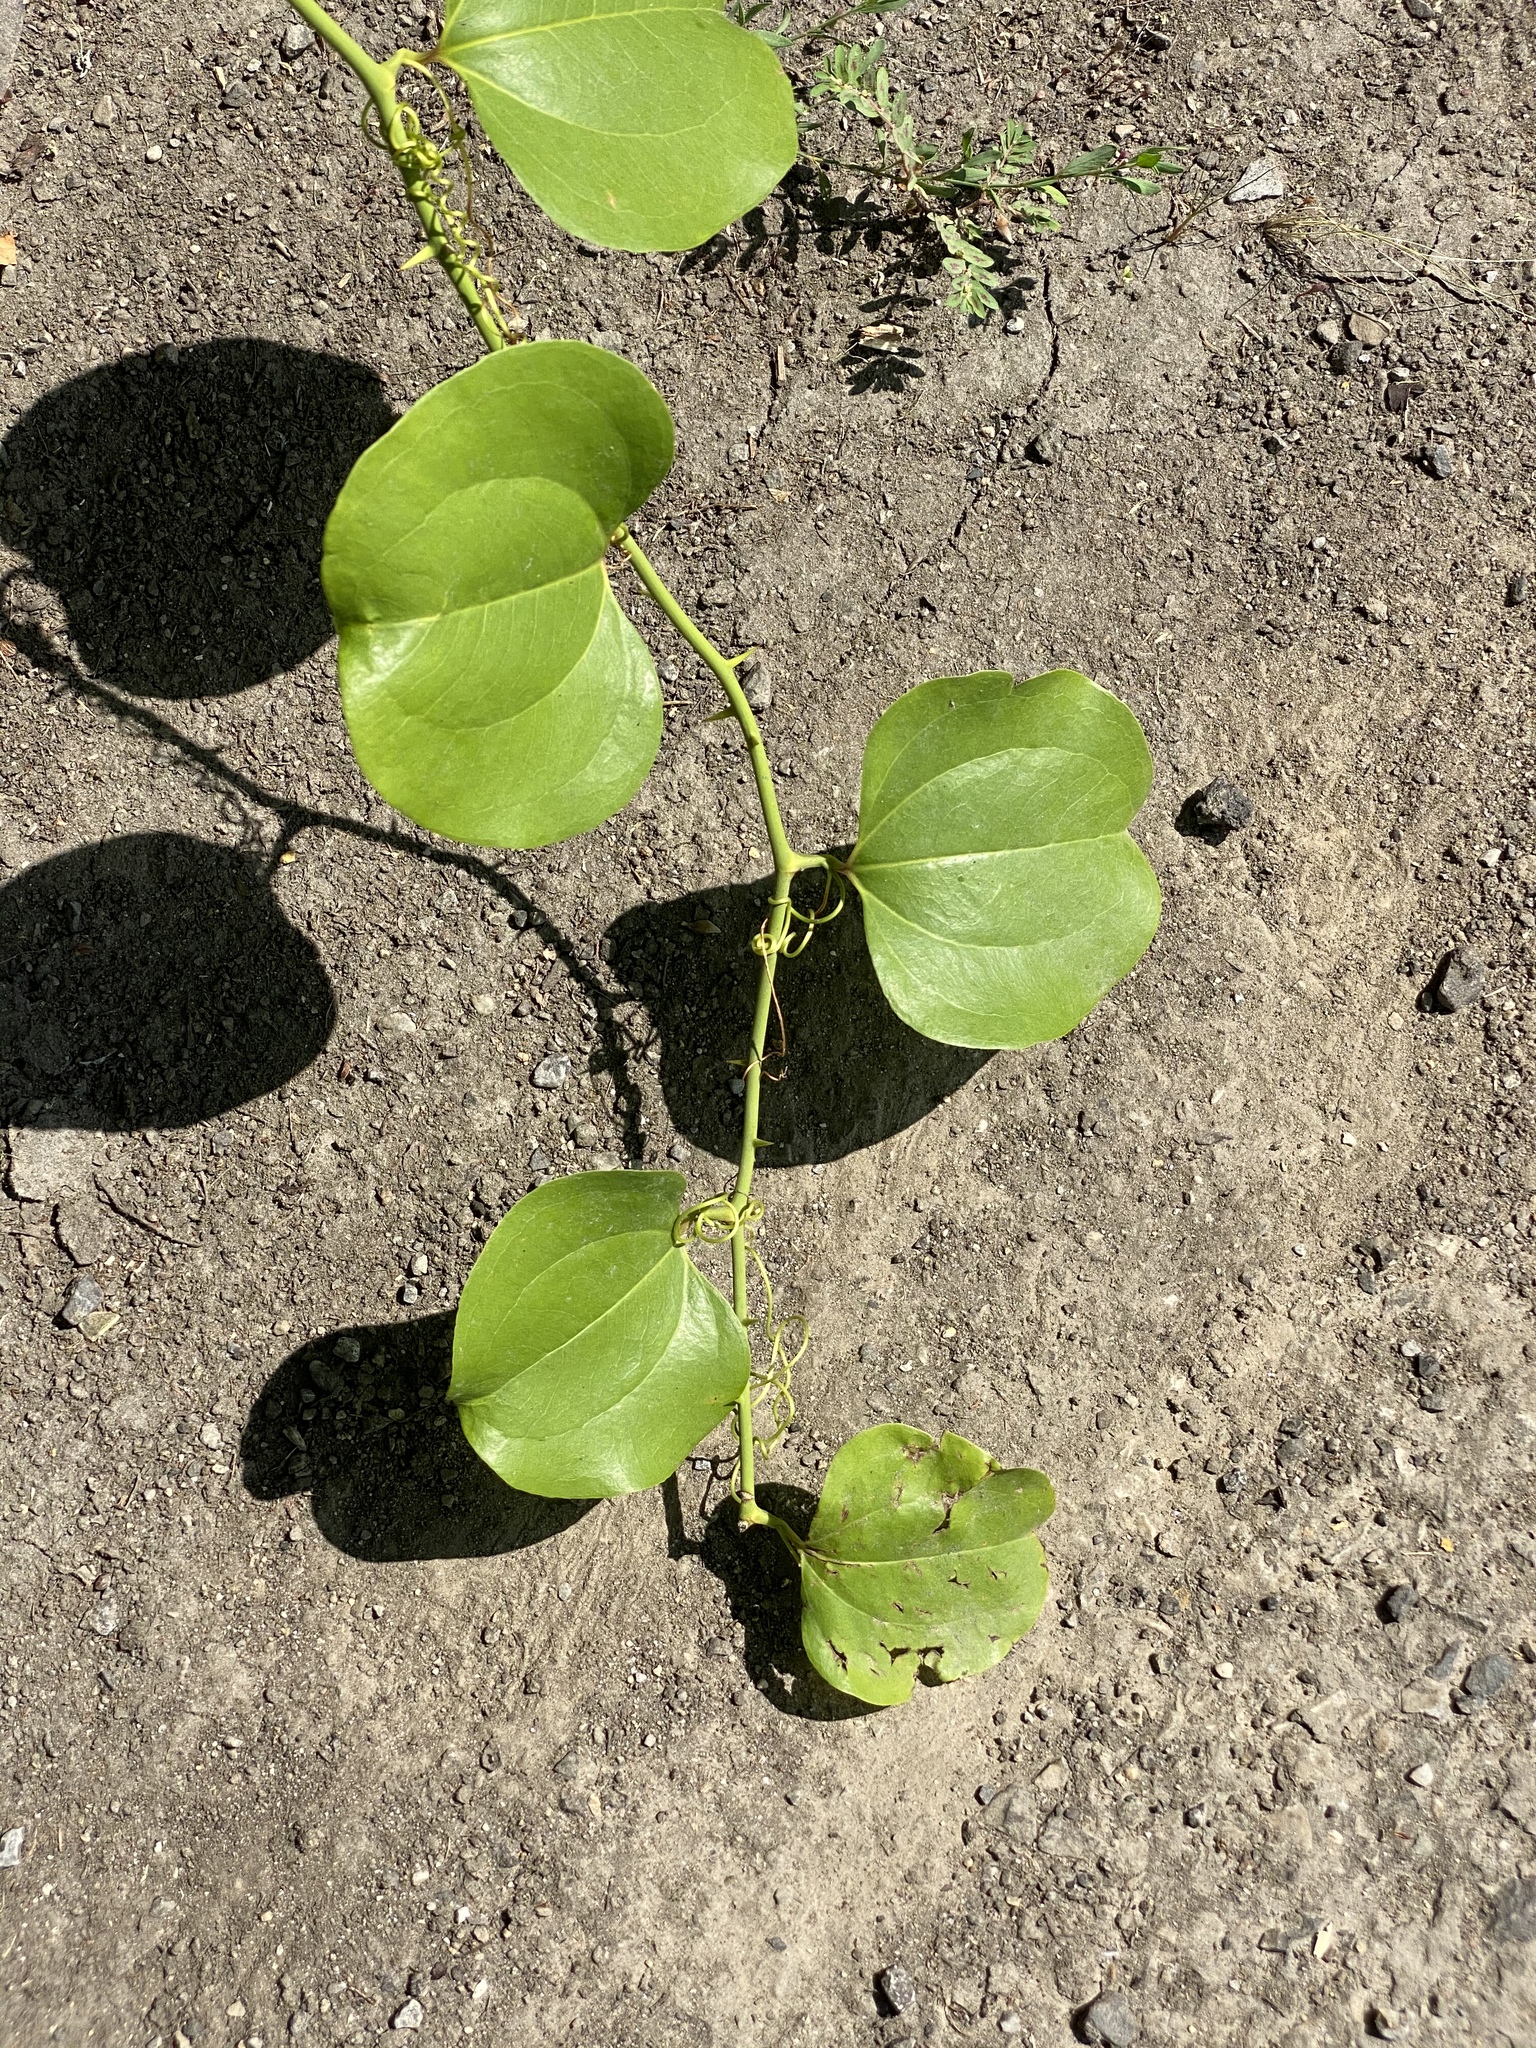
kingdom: Plantae
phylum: Tracheophyta
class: Liliopsida
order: Liliales
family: Smilacaceae
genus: Smilax
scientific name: Smilax rotundifolia
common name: Bullbriar
